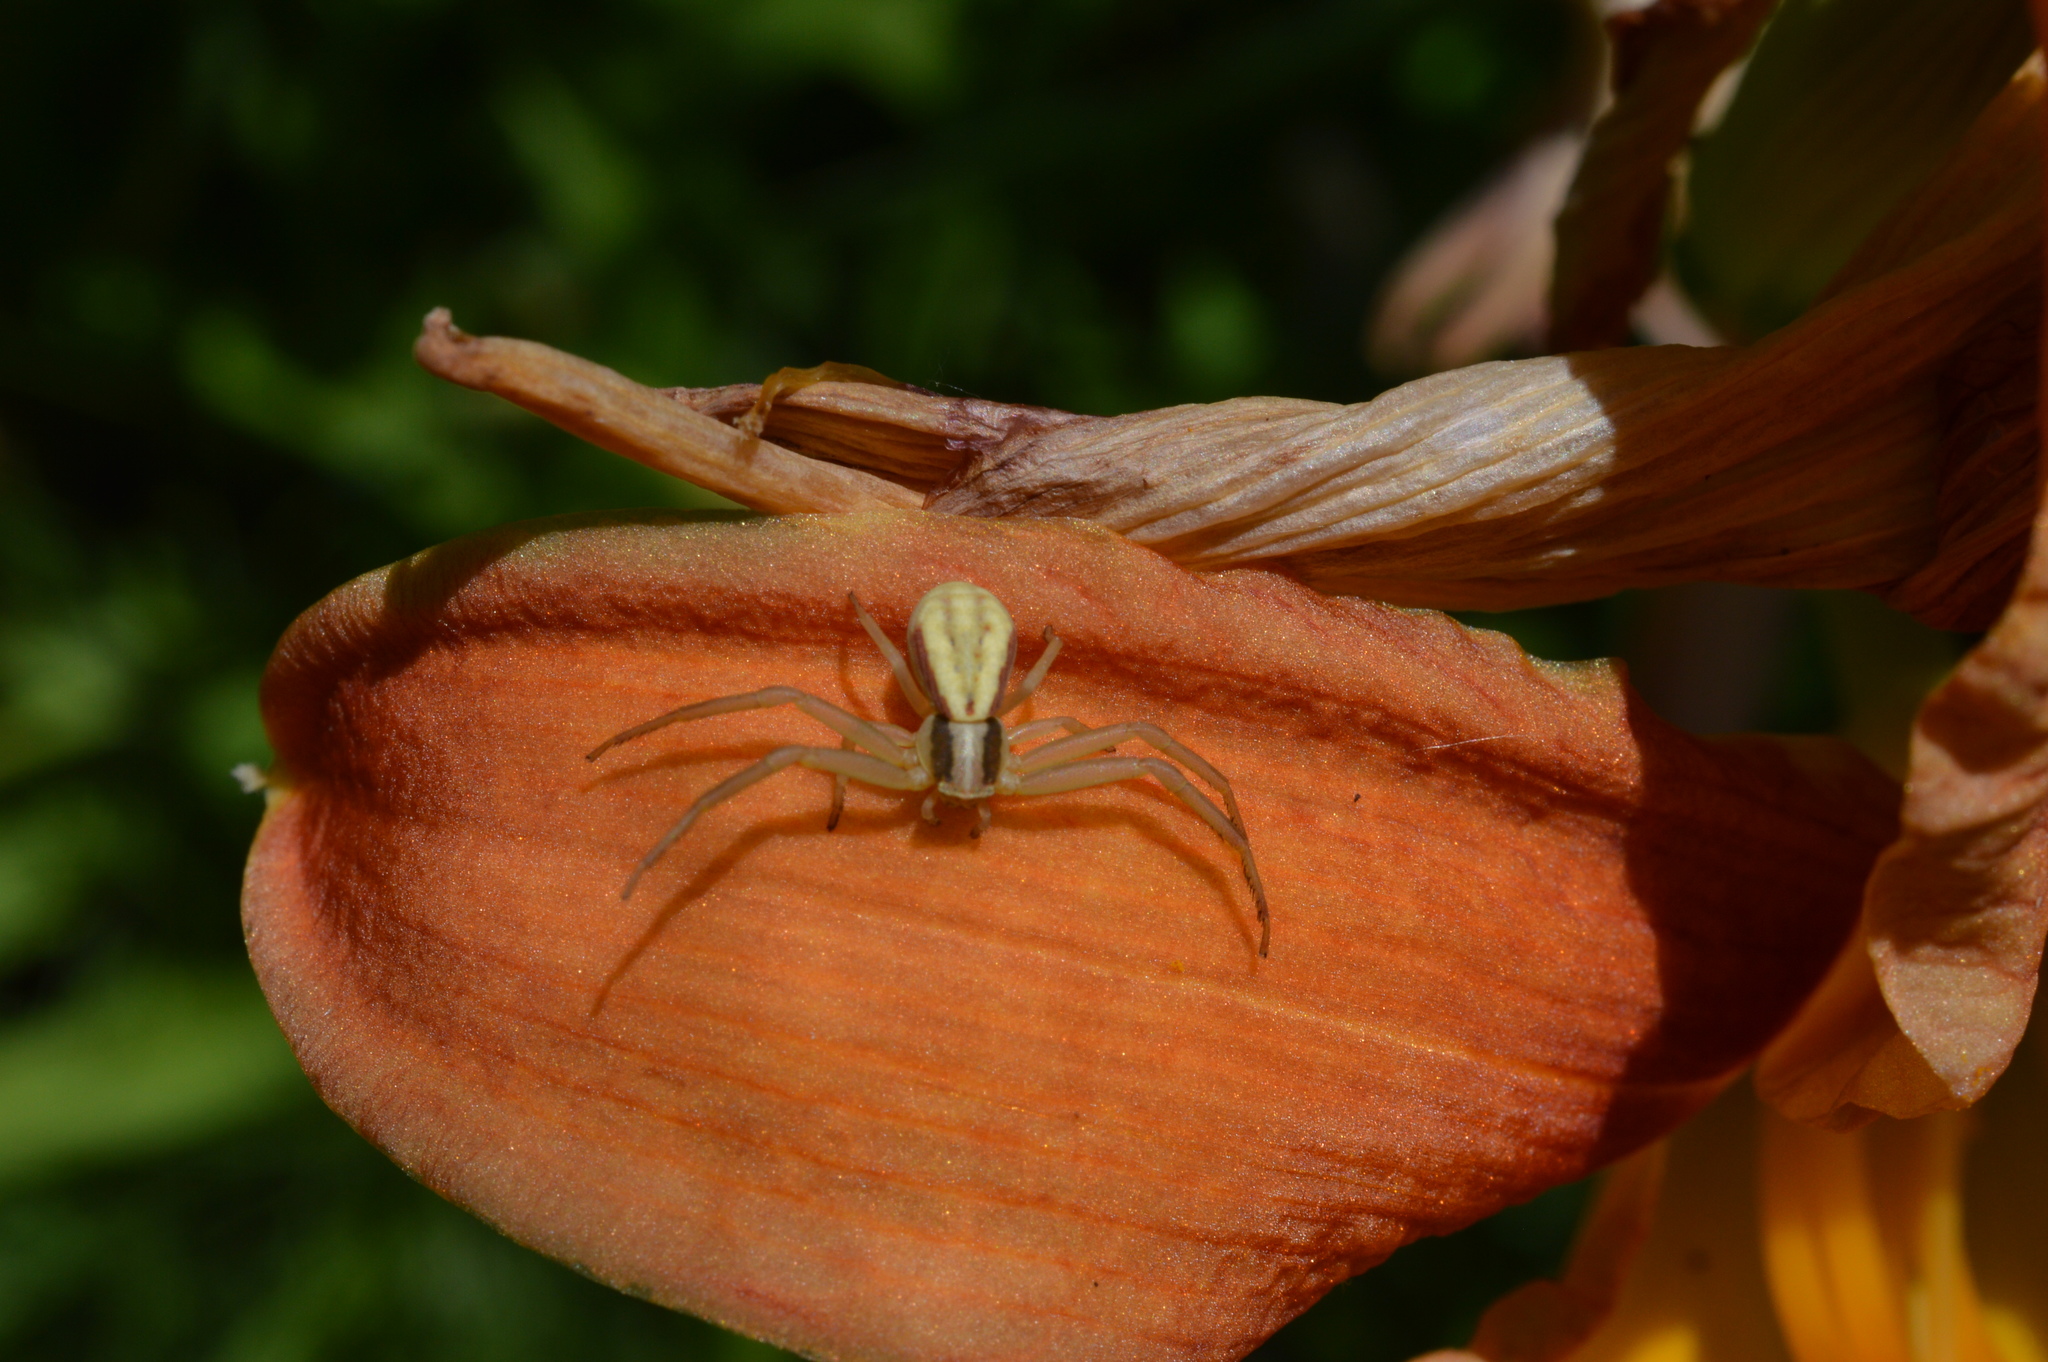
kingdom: Animalia
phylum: Arthropoda
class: Arachnida
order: Araneae
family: Thomisidae
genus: Runcinia
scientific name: Runcinia grammica
